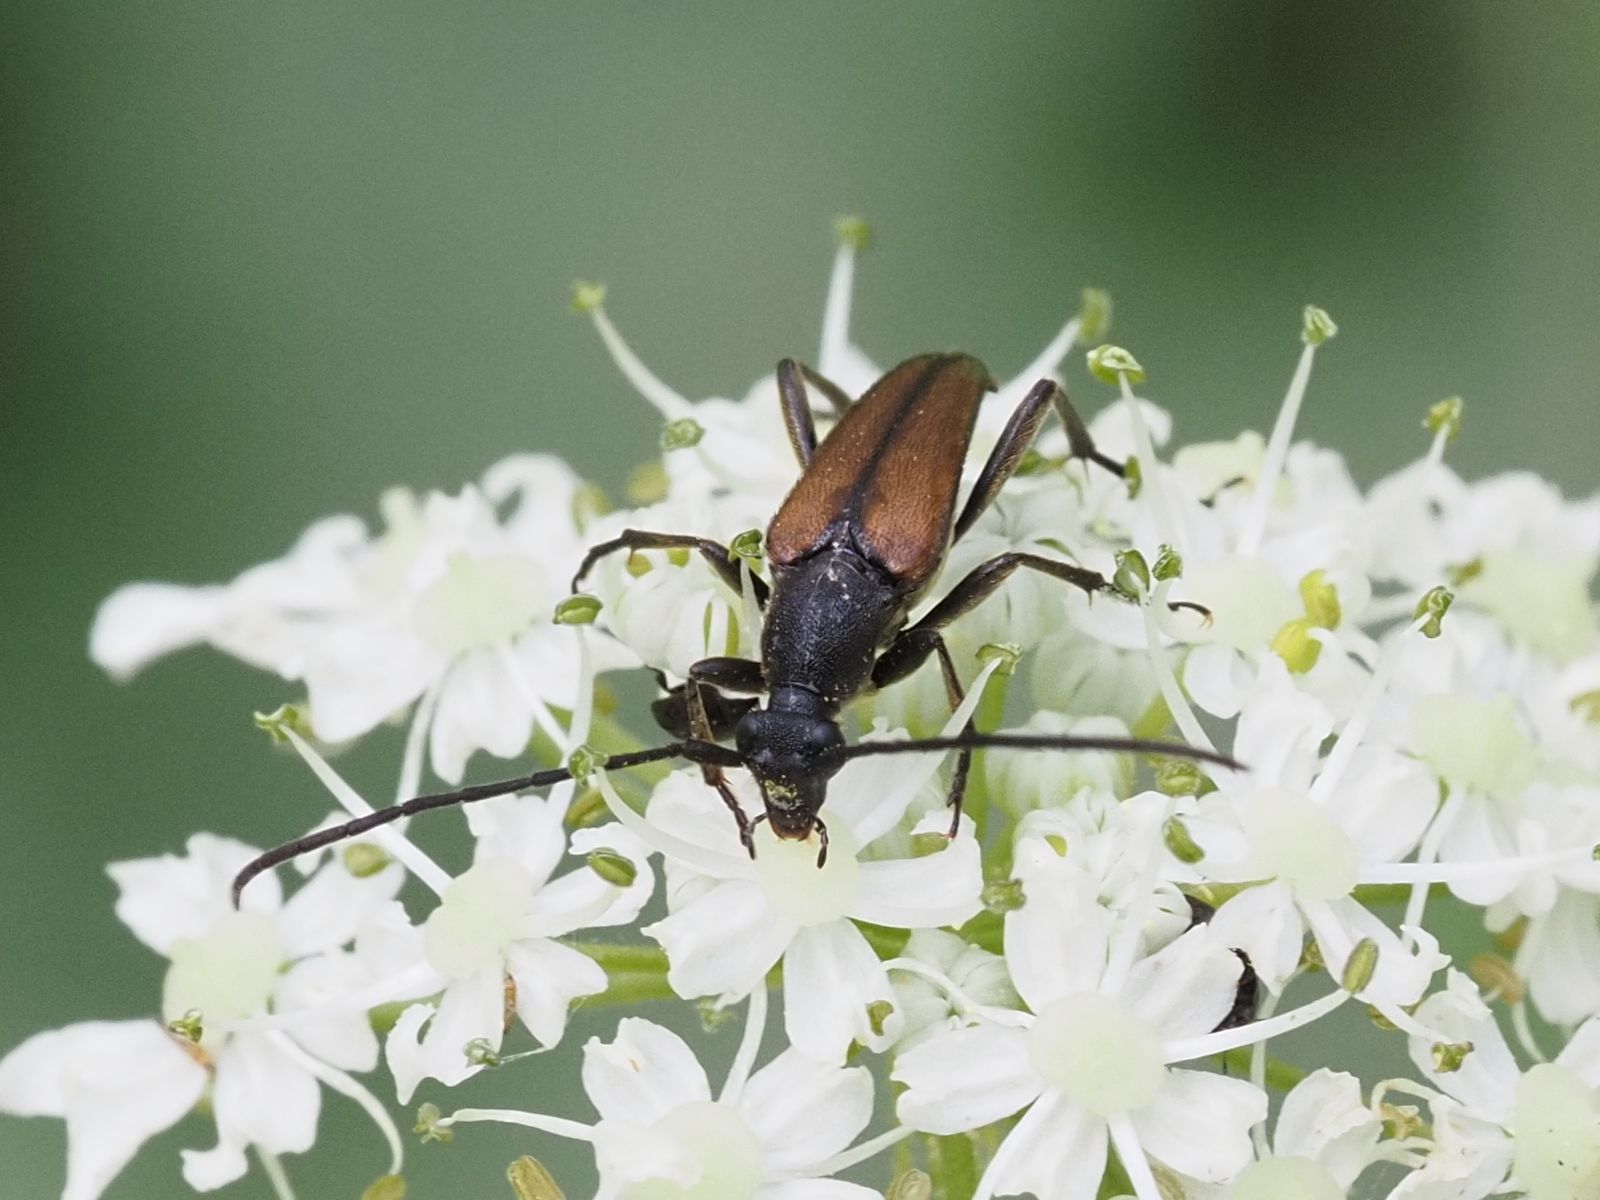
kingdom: Animalia
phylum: Arthropoda
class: Insecta
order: Coleoptera
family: Cerambycidae
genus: Stenurella
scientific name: Stenurella melanura
